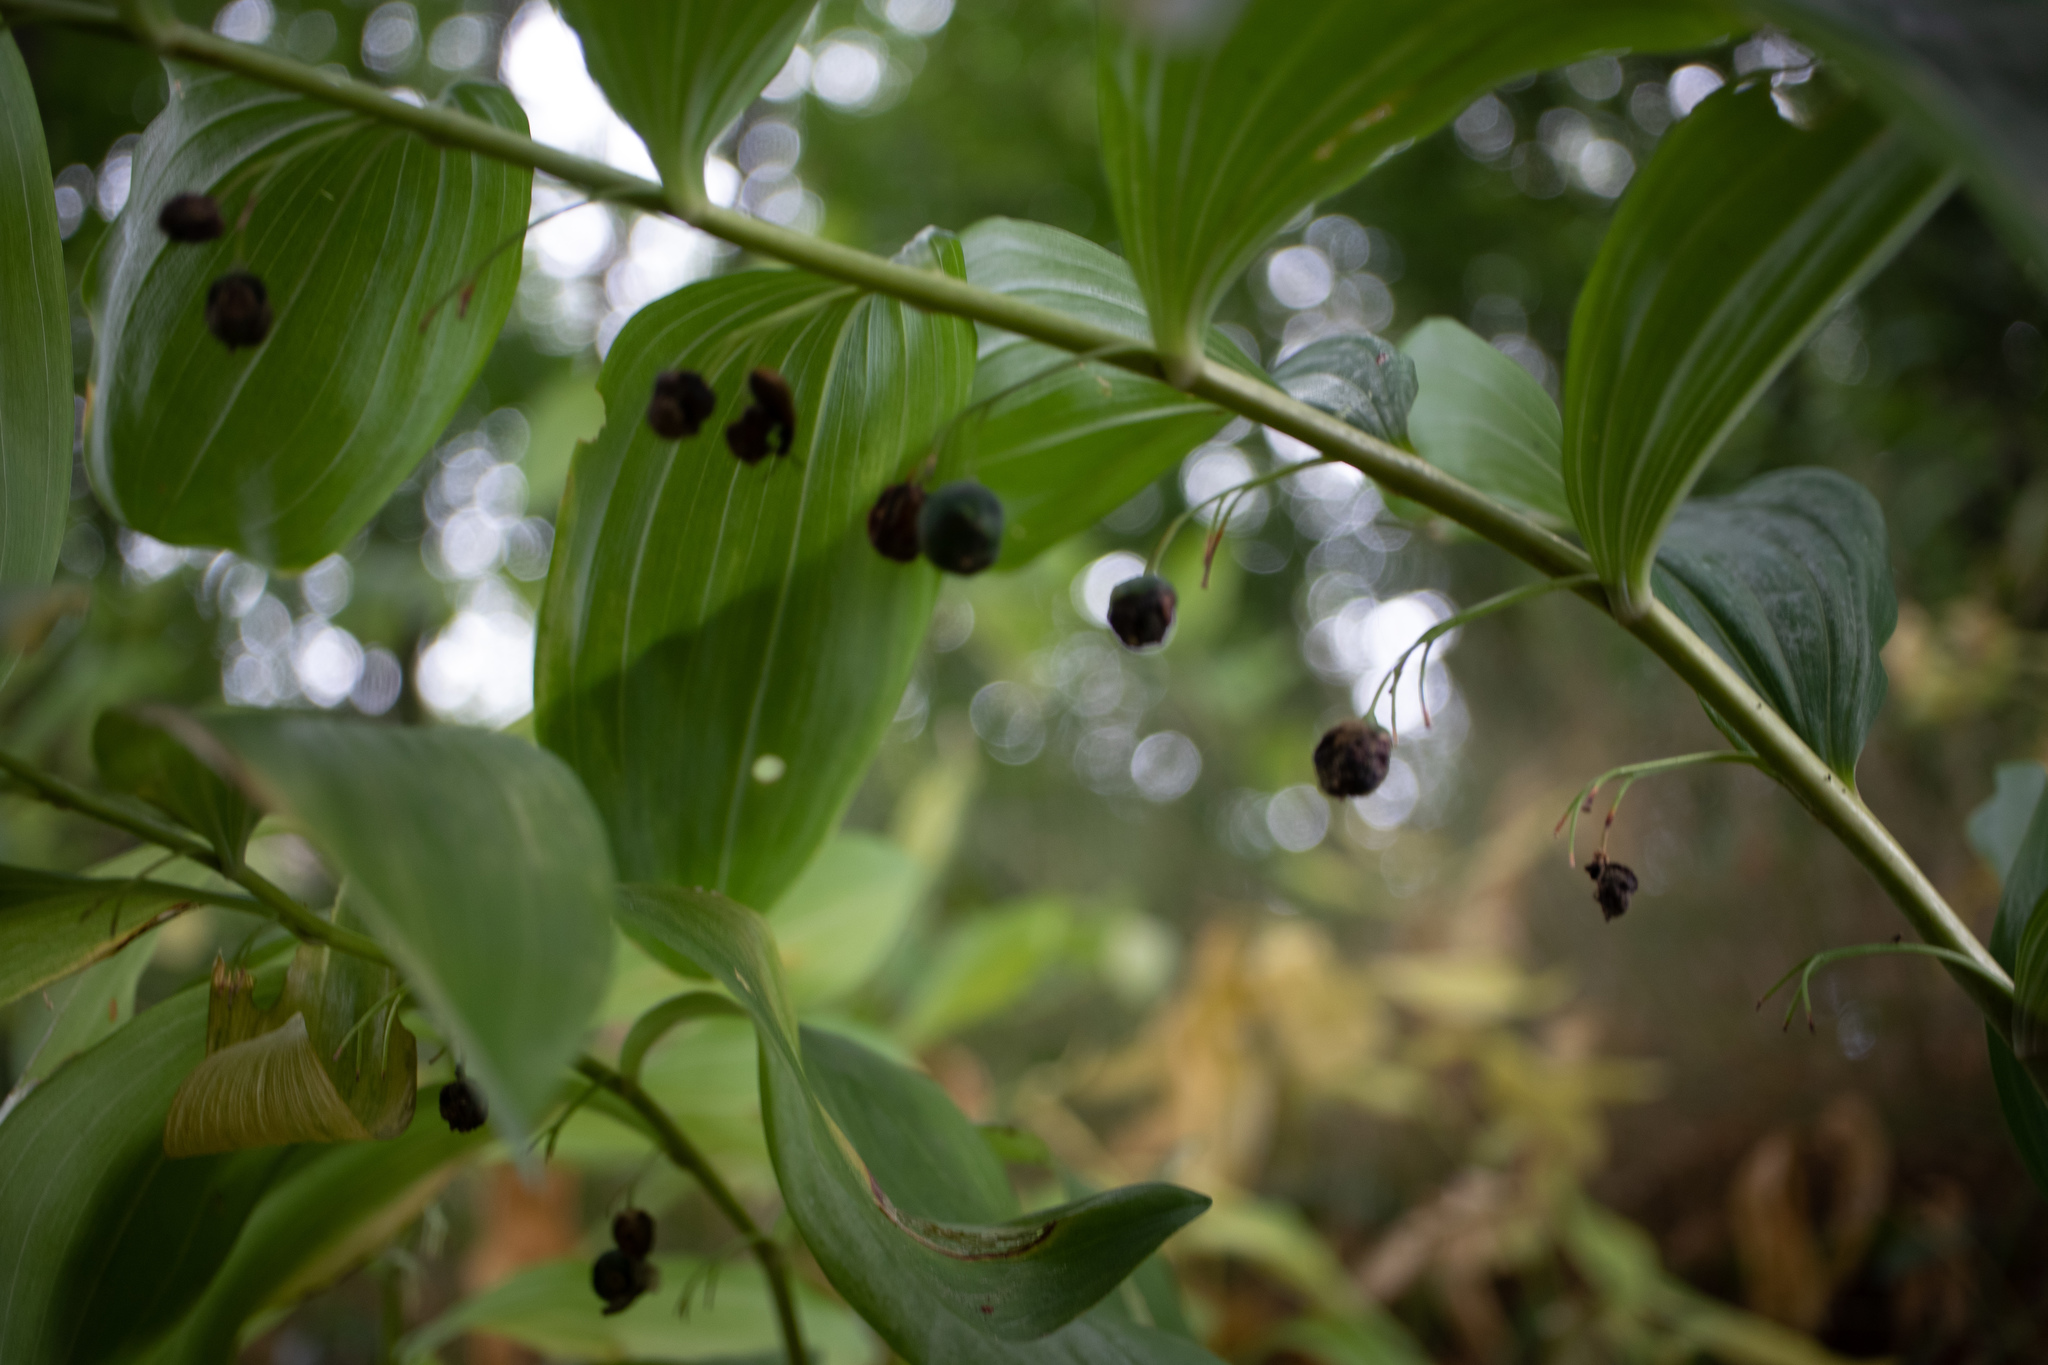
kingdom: Plantae
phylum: Tracheophyta
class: Liliopsida
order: Asparagales
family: Asparagaceae
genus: Polygonatum
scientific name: Polygonatum multiflorum
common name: Solomon's-seal
